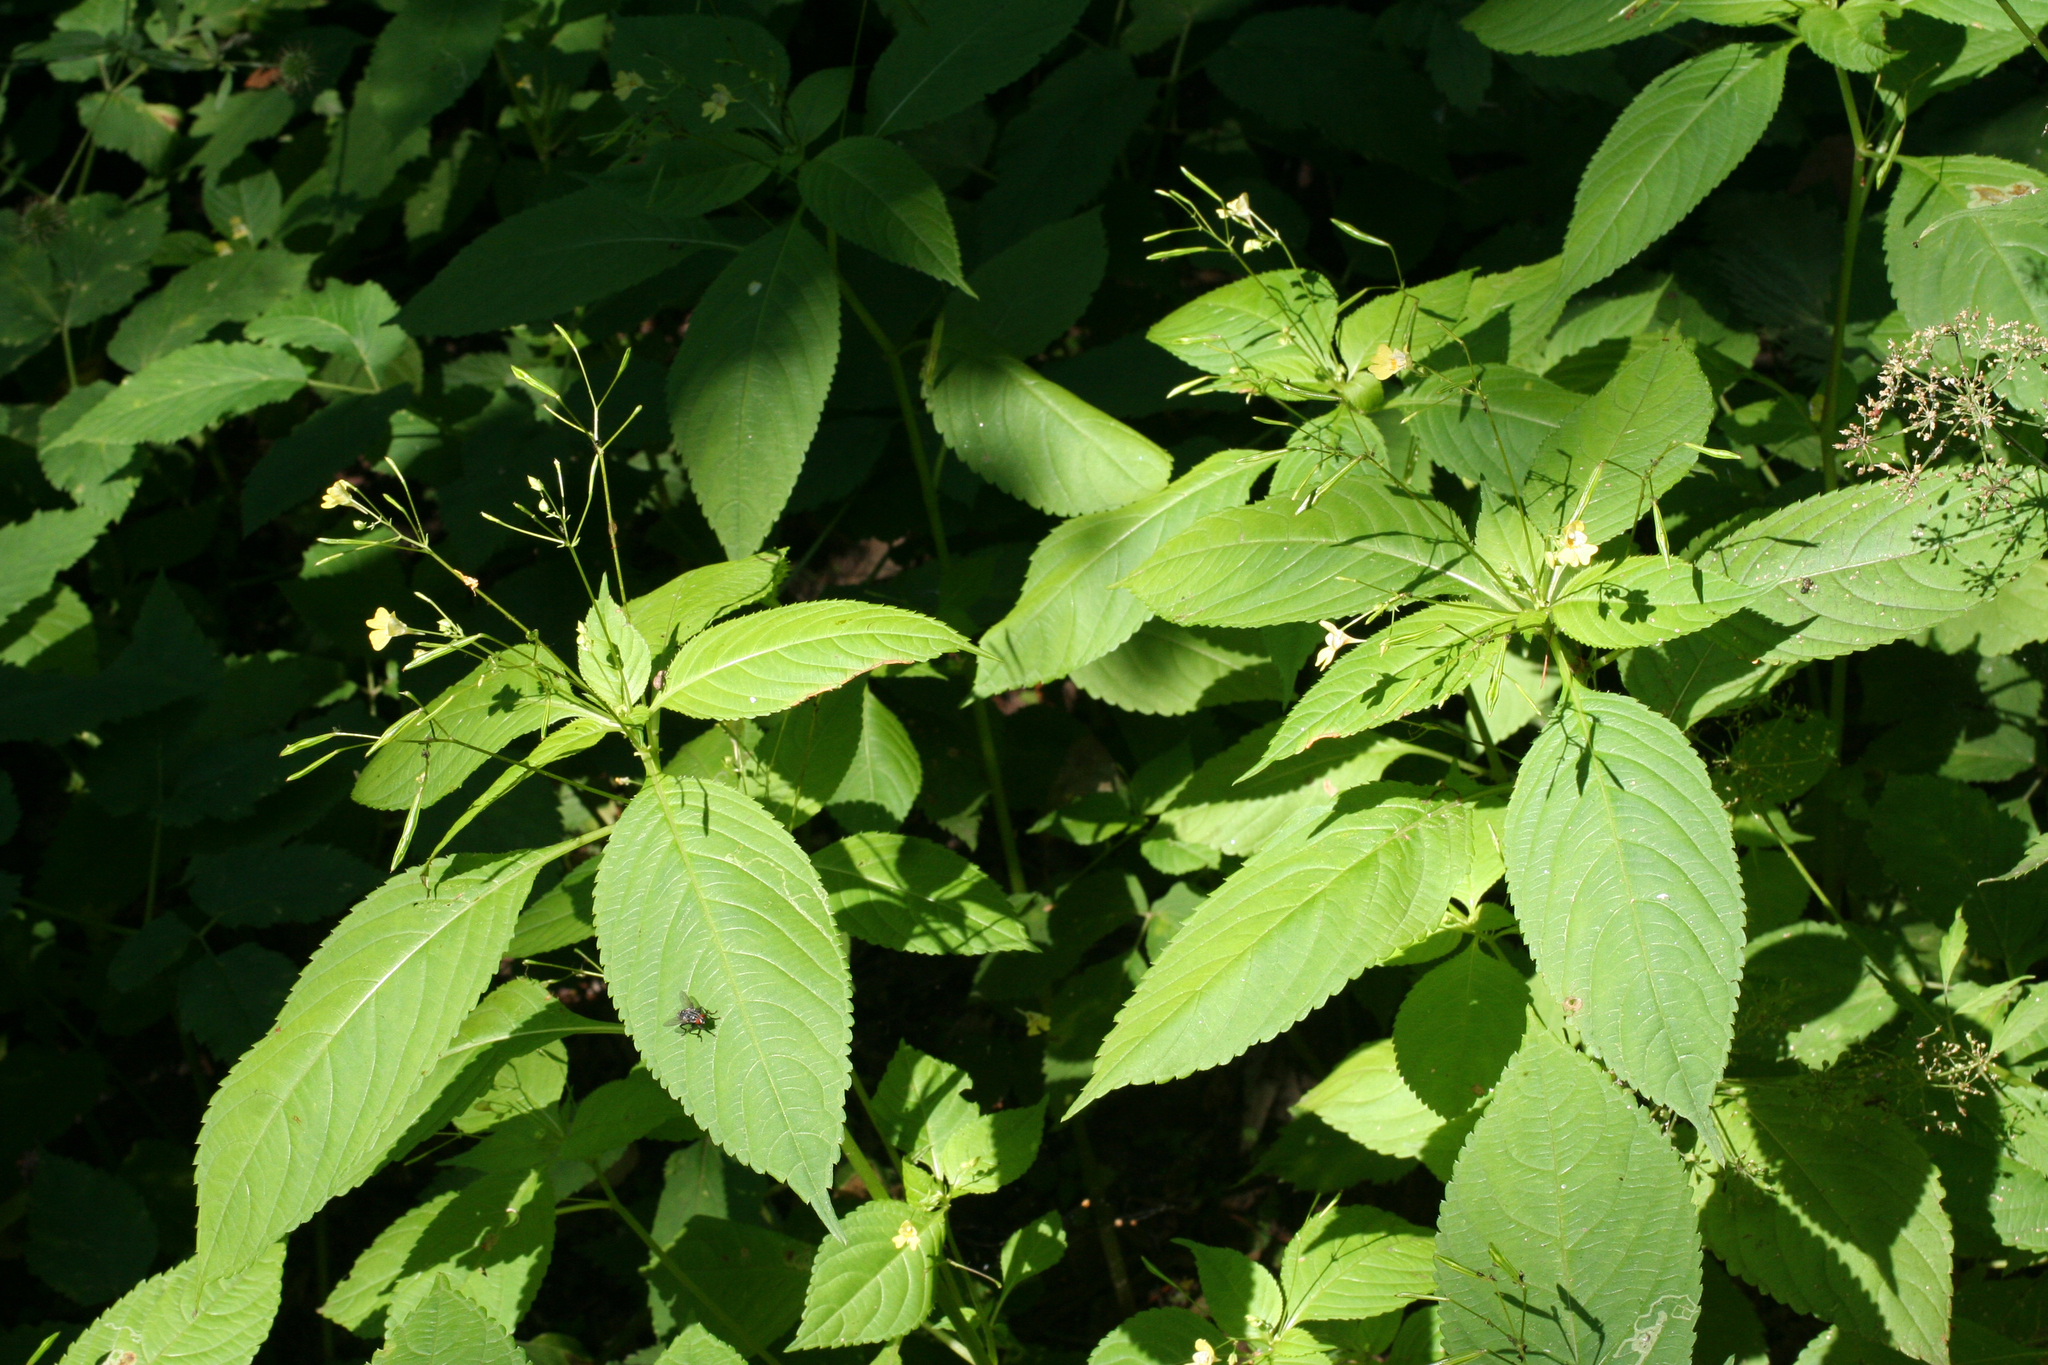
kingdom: Plantae
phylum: Tracheophyta
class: Magnoliopsida
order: Ericales
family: Balsaminaceae
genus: Impatiens
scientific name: Impatiens parviflora
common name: Small balsam
